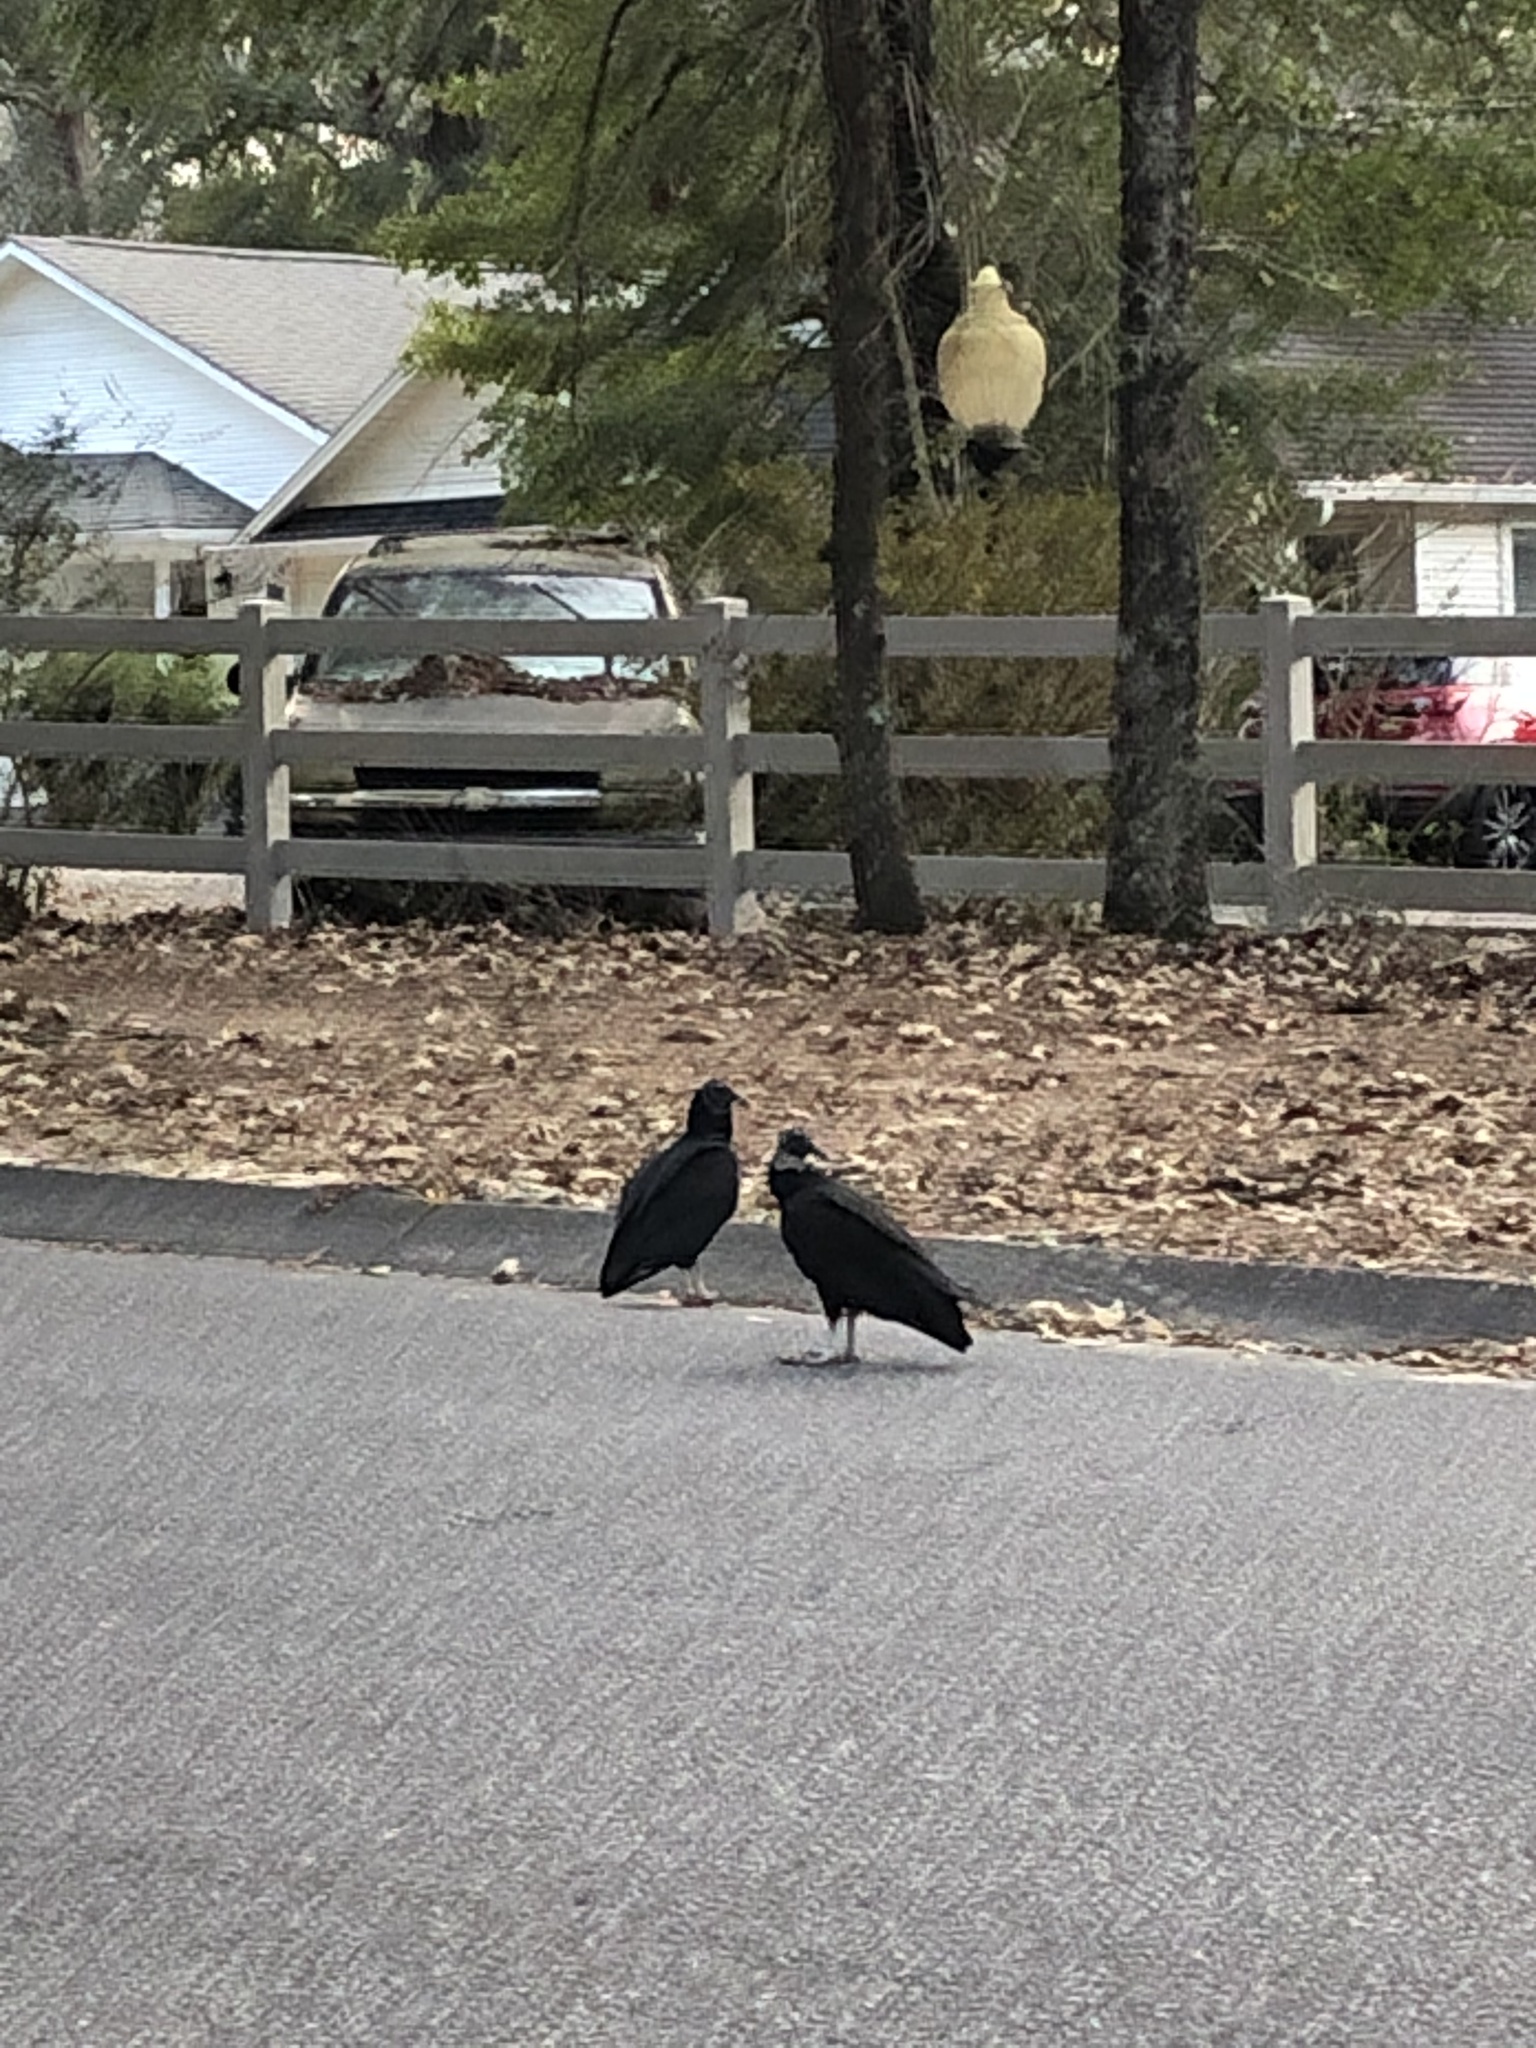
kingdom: Animalia
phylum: Chordata
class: Aves
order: Accipitriformes
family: Cathartidae
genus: Coragyps
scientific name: Coragyps atratus
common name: Black vulture
